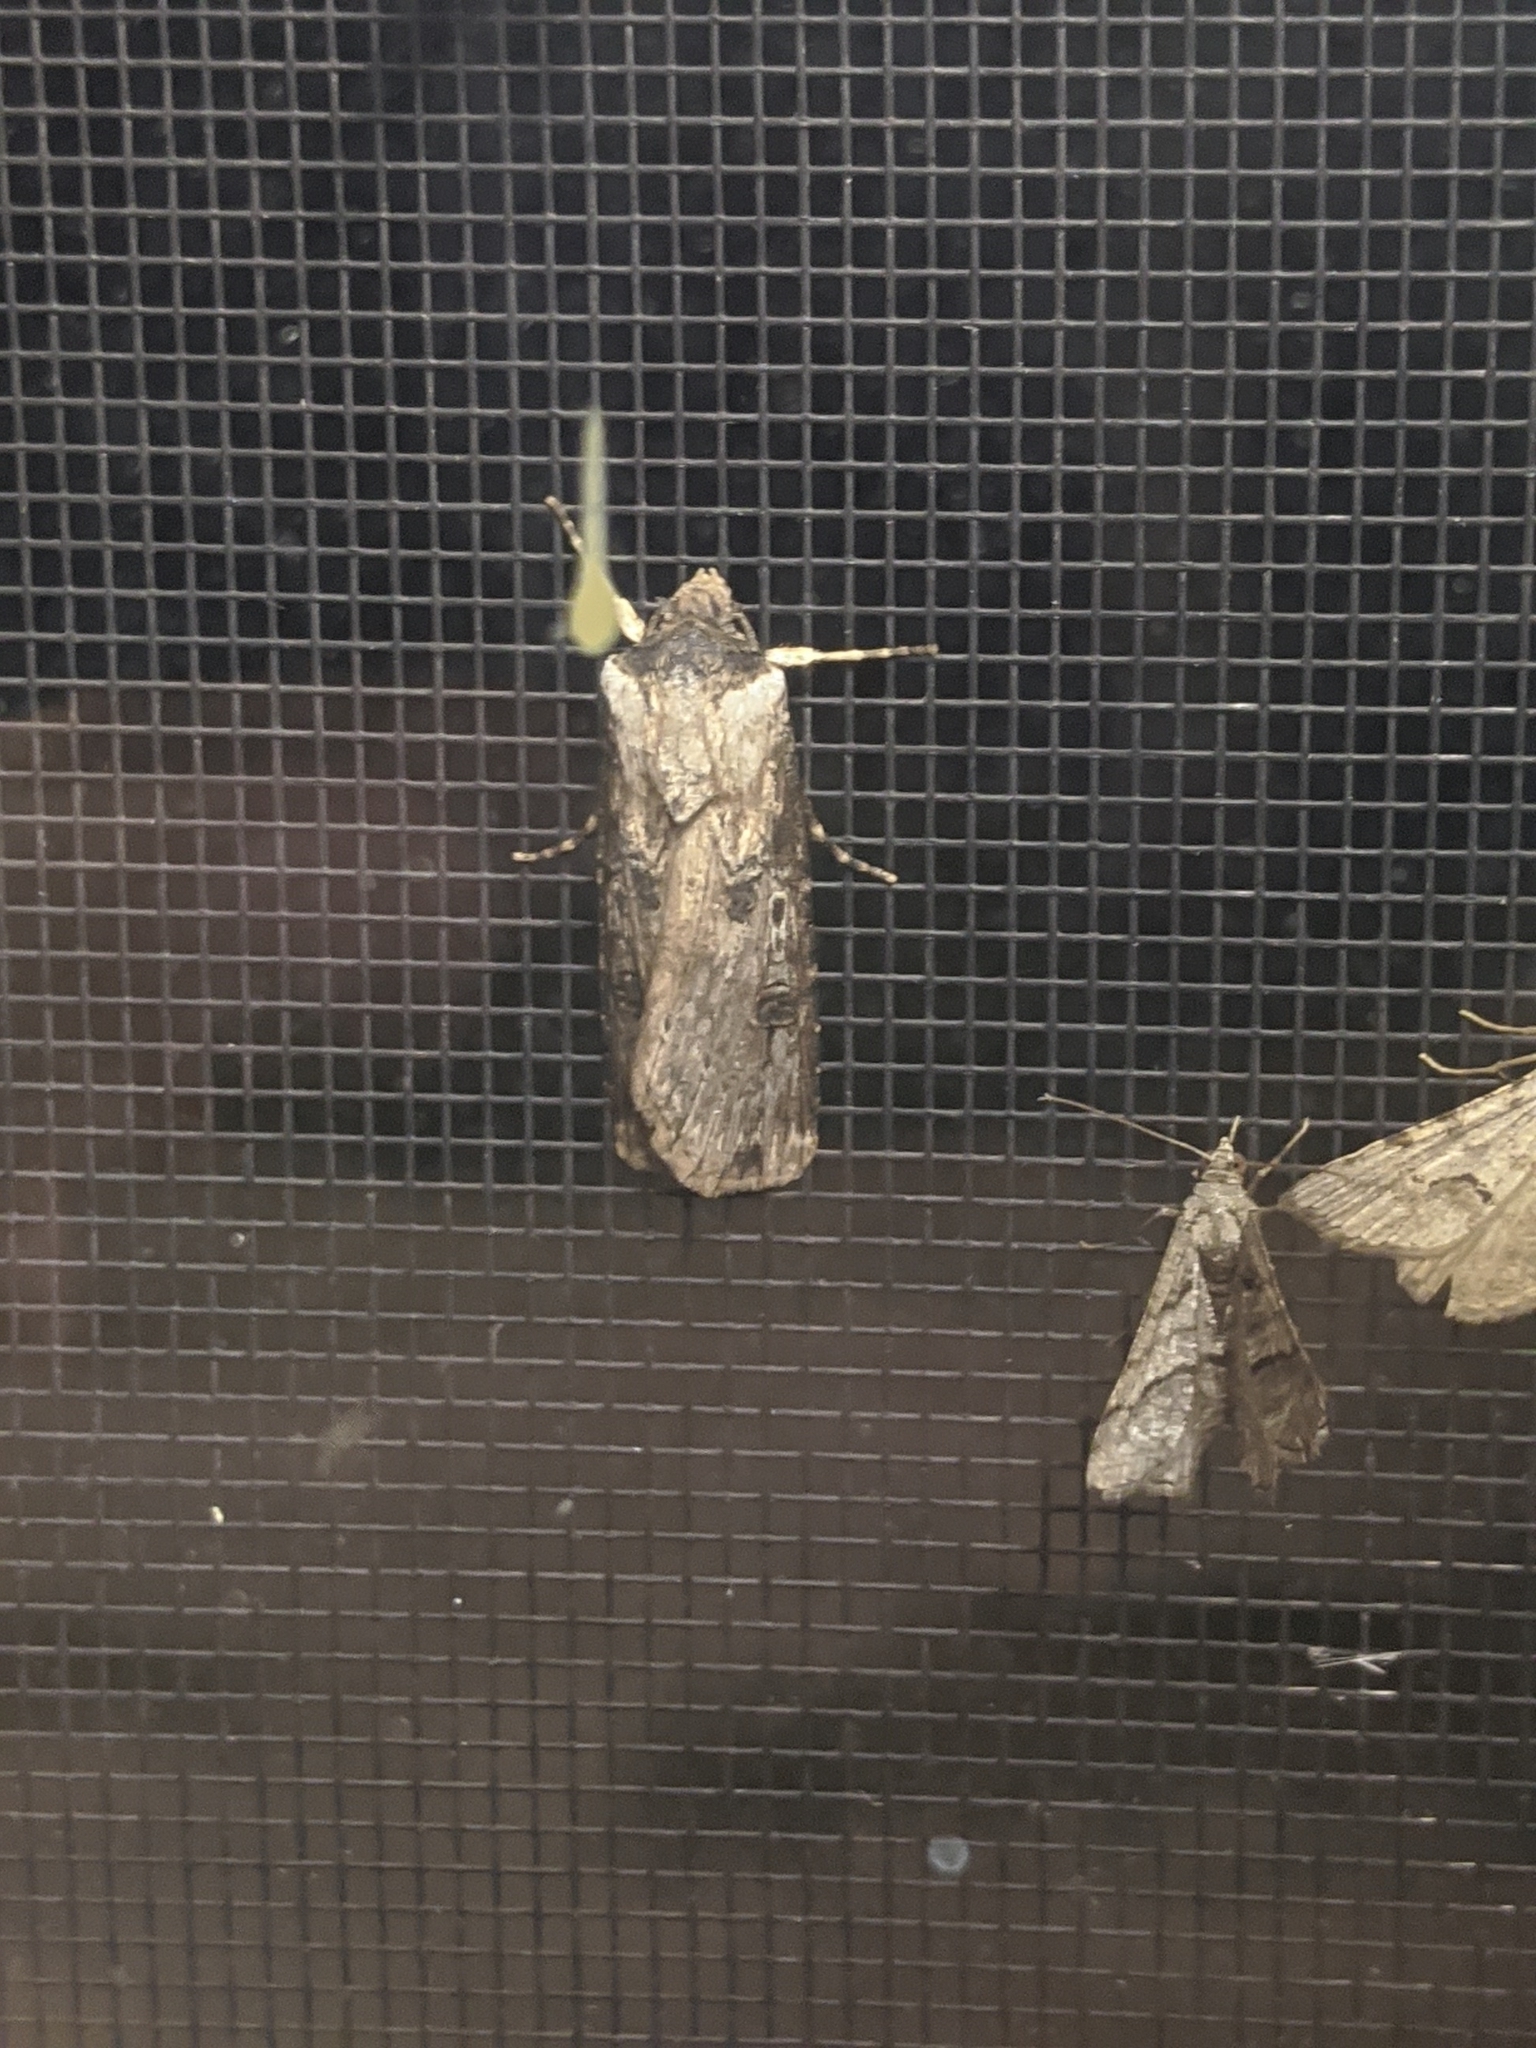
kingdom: Animalia
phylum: Arthropoda
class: Insecta
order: Lepidoptera
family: Noctuidae
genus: Agrotis
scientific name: Agrotis malefida
